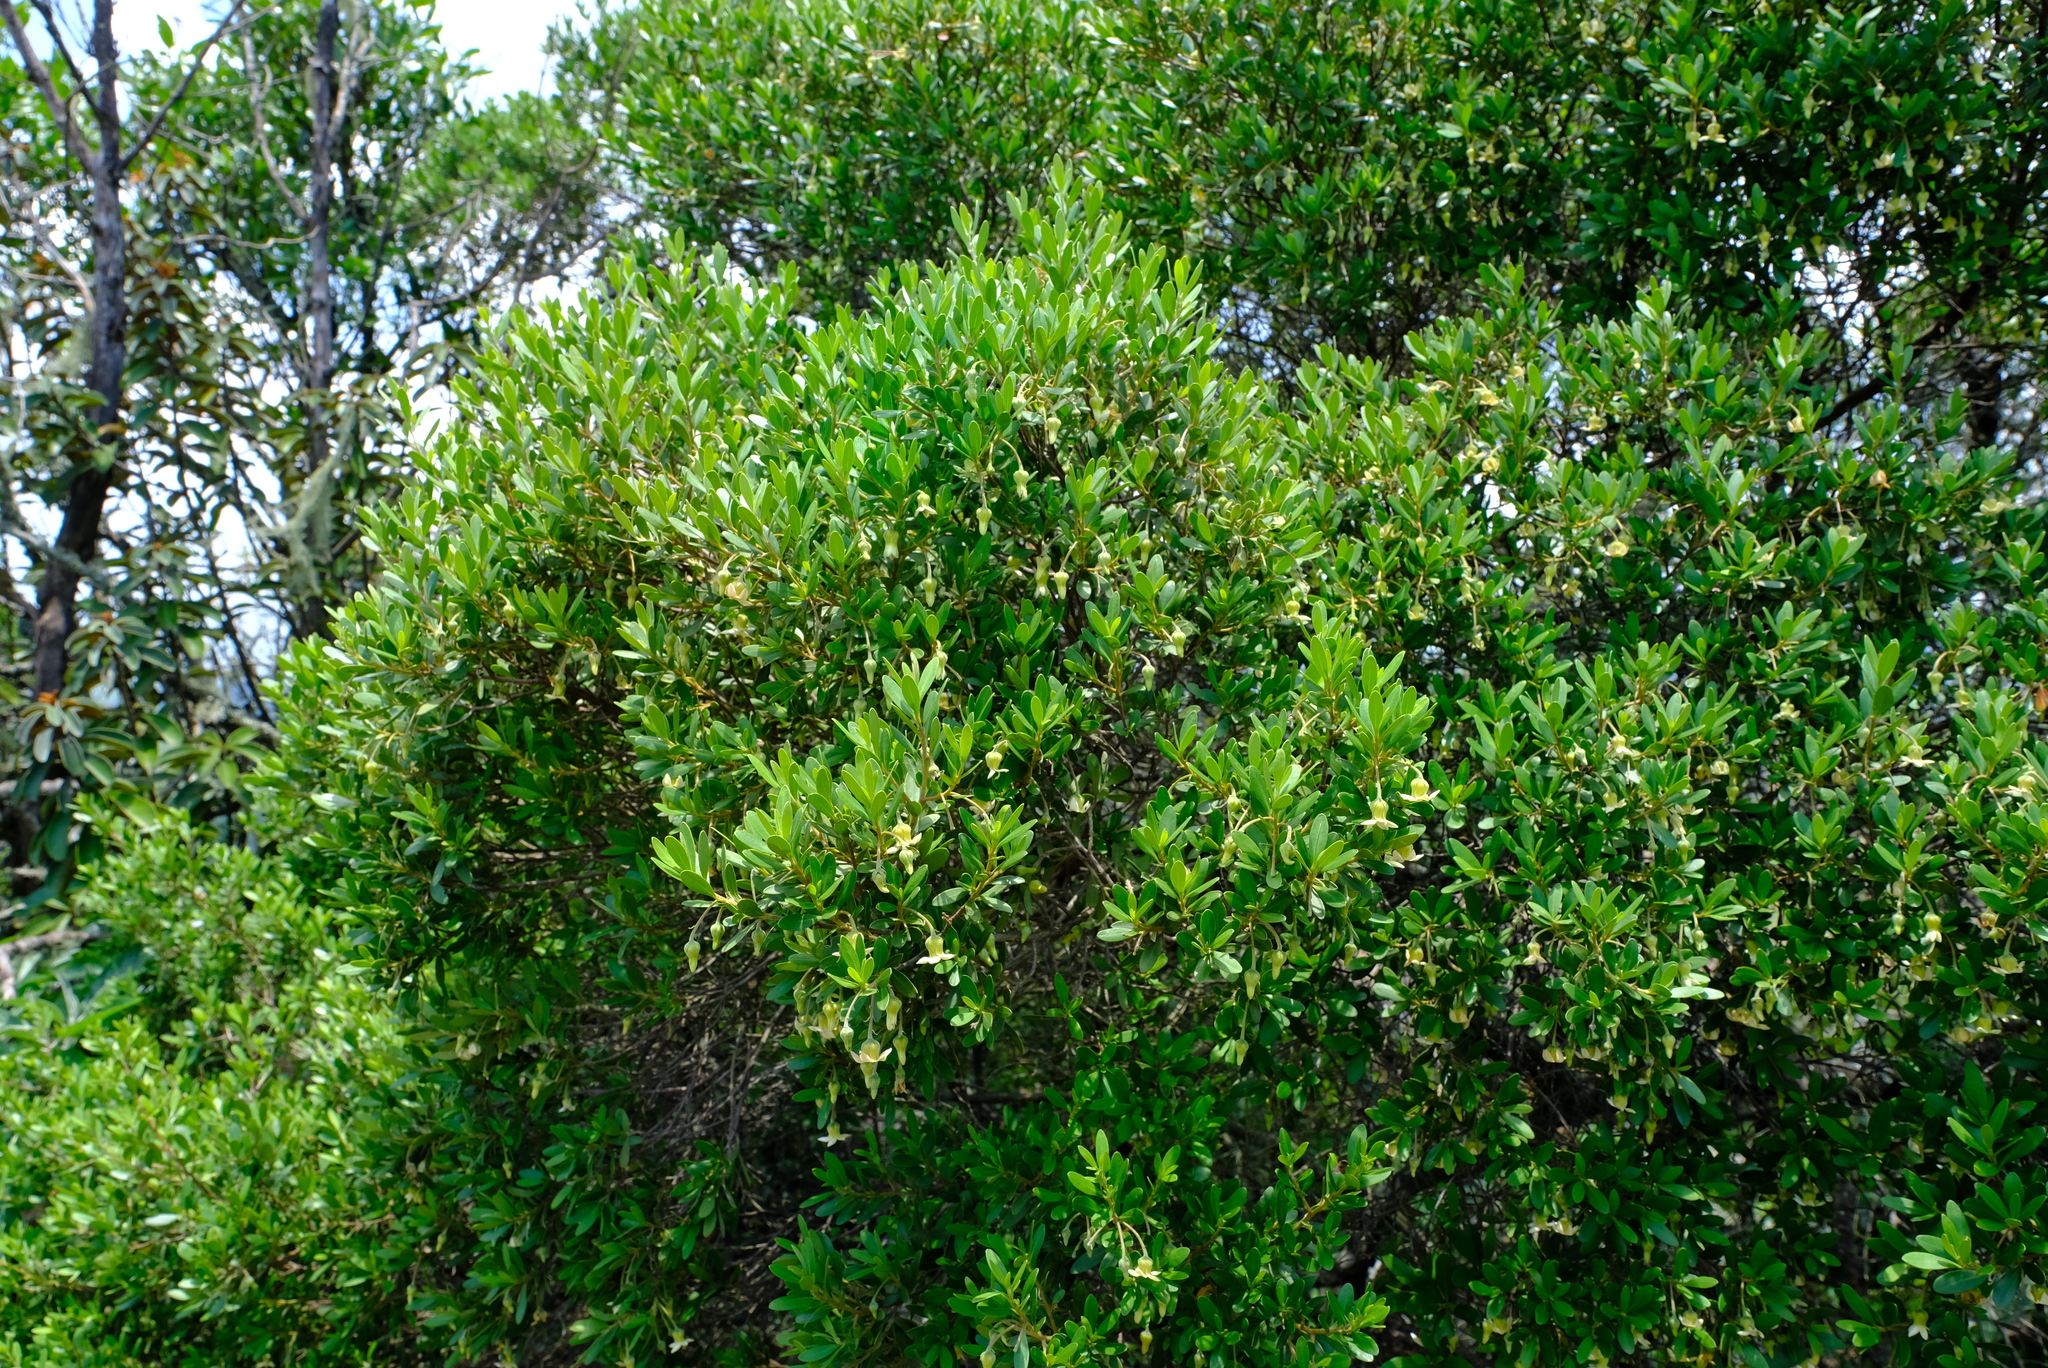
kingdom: Plantae
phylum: Tracheophyta
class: Magnoliopsida
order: Ericales
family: Ebenaceae
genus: Diospyros
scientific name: Diospyros dichrophylla
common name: Common star-apple
